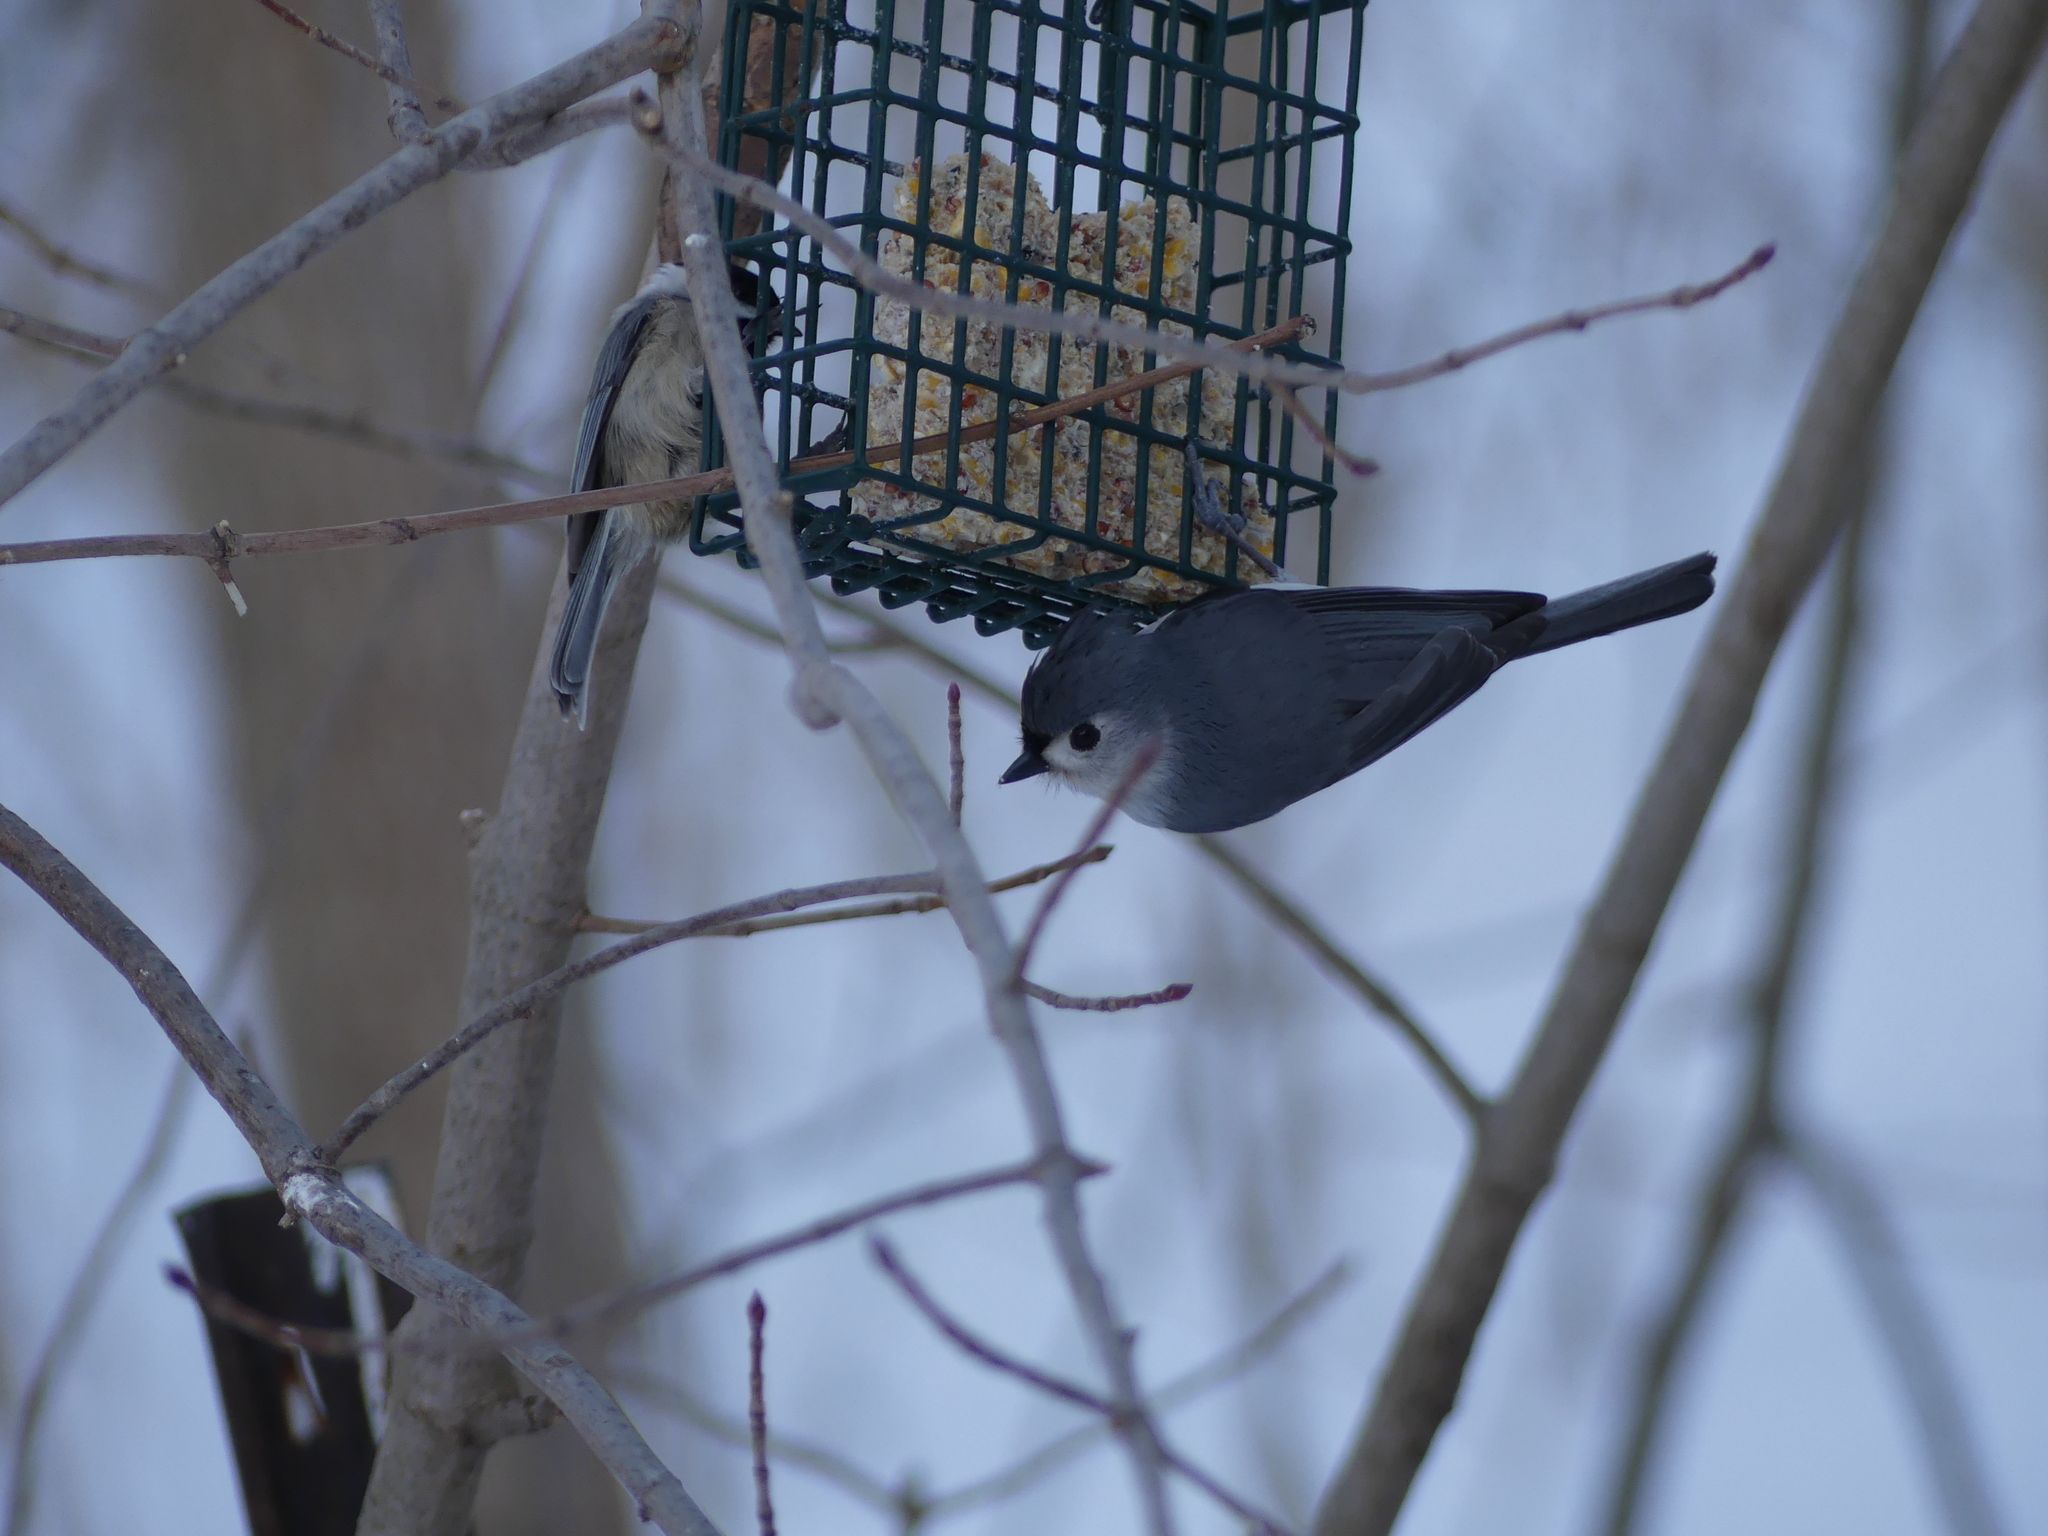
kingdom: Animalia
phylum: Chordata
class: Aves
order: Passeriformes
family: Paridae
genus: Baeolophus
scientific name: Baeolophus bicolor
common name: Tufted titmouse
